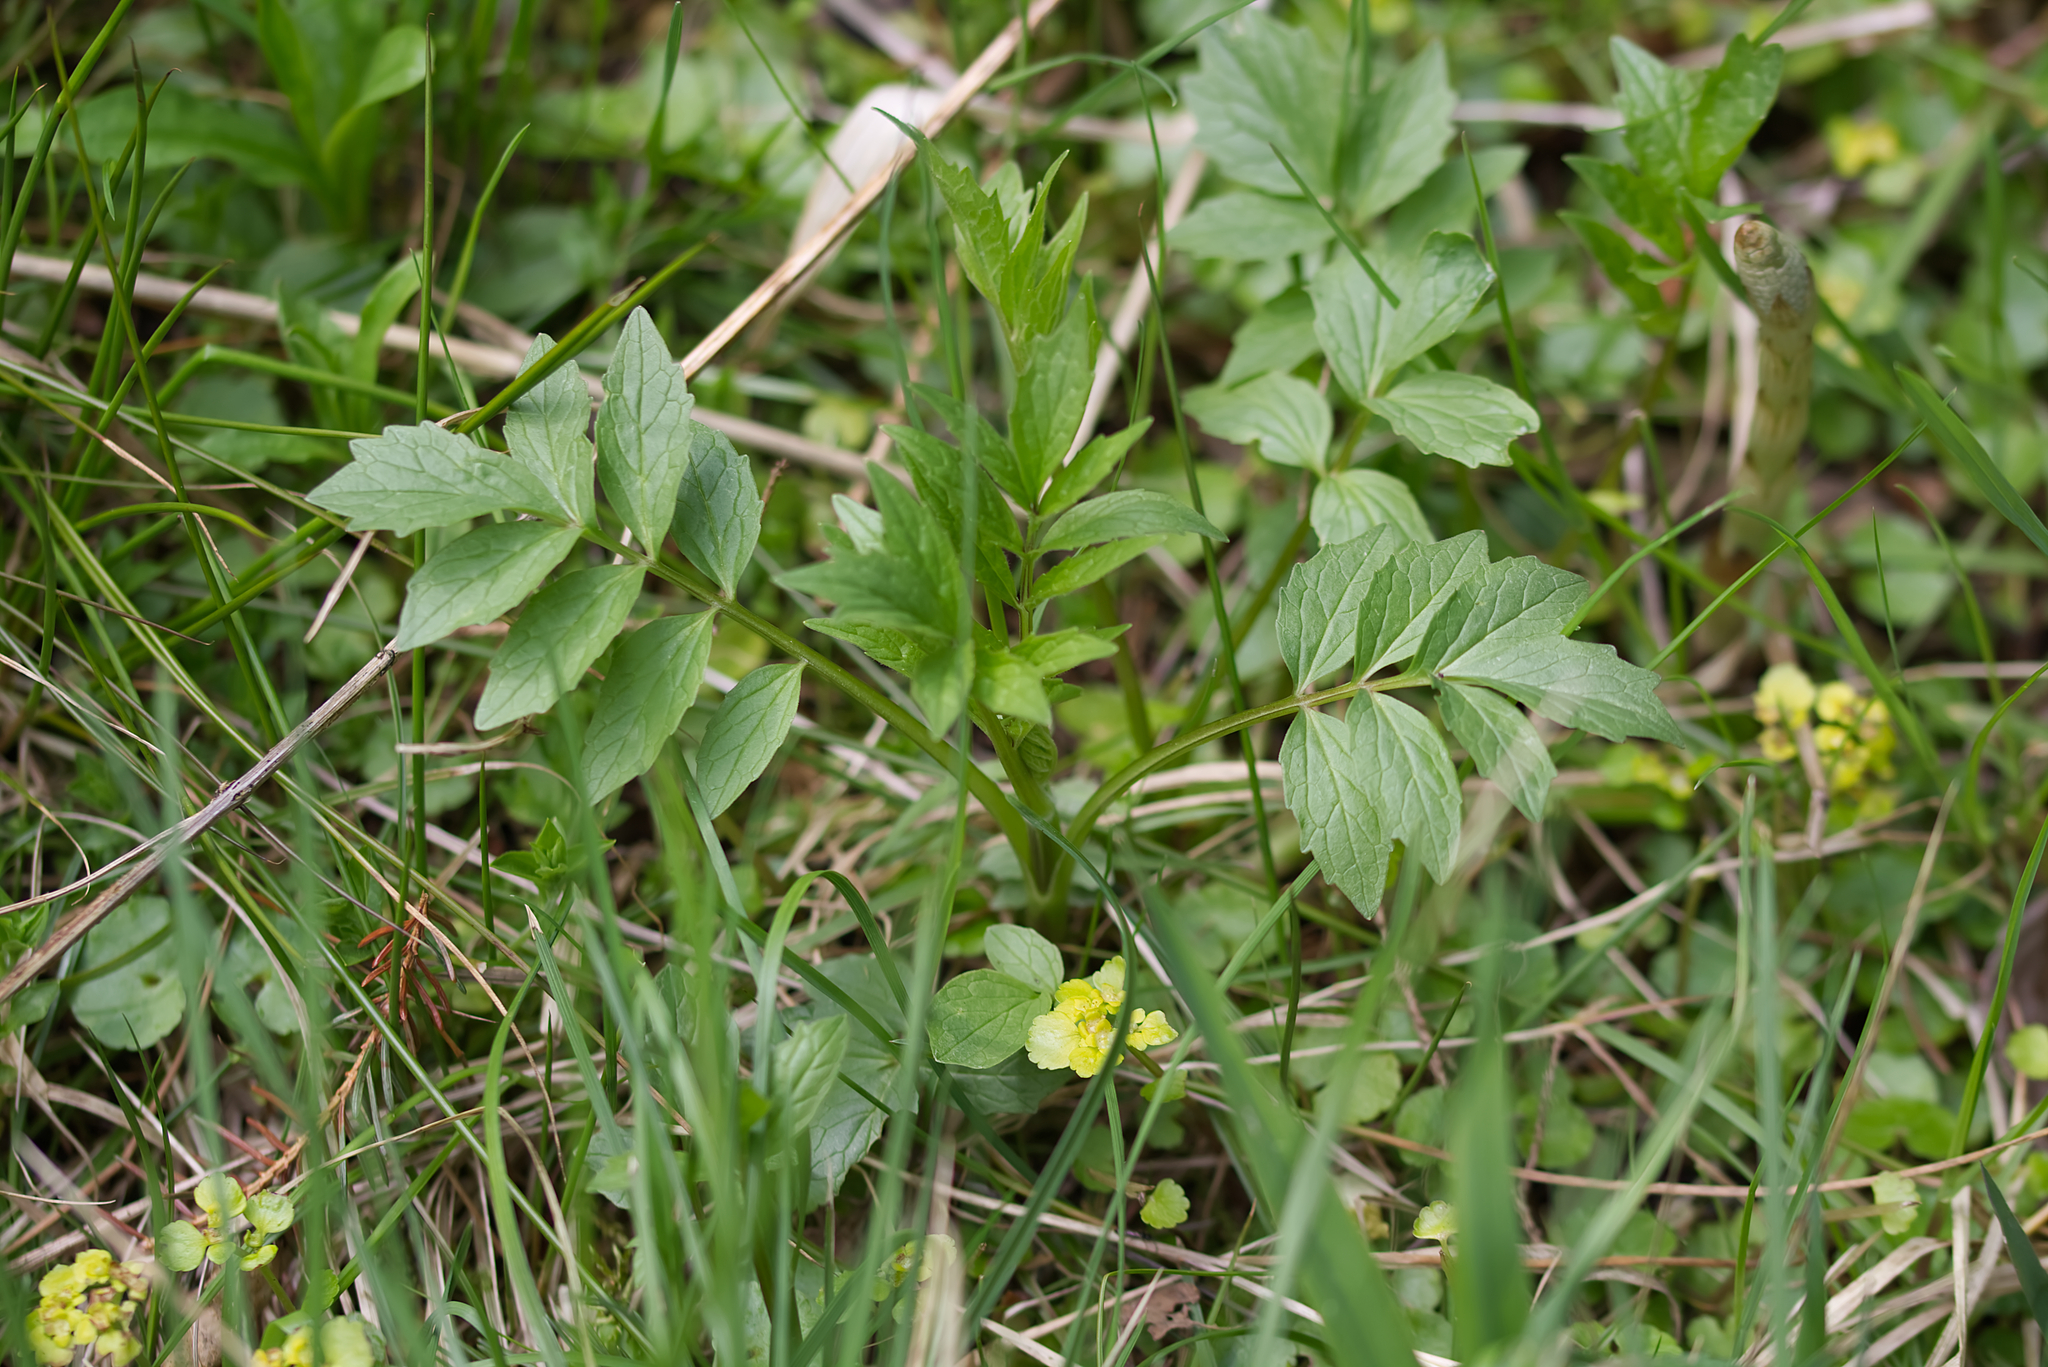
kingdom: Plantae
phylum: Tracheophyta
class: Magnoliopsida
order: Dipsacales
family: Caprifoliaceae
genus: Valeriana
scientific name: Valeriana
